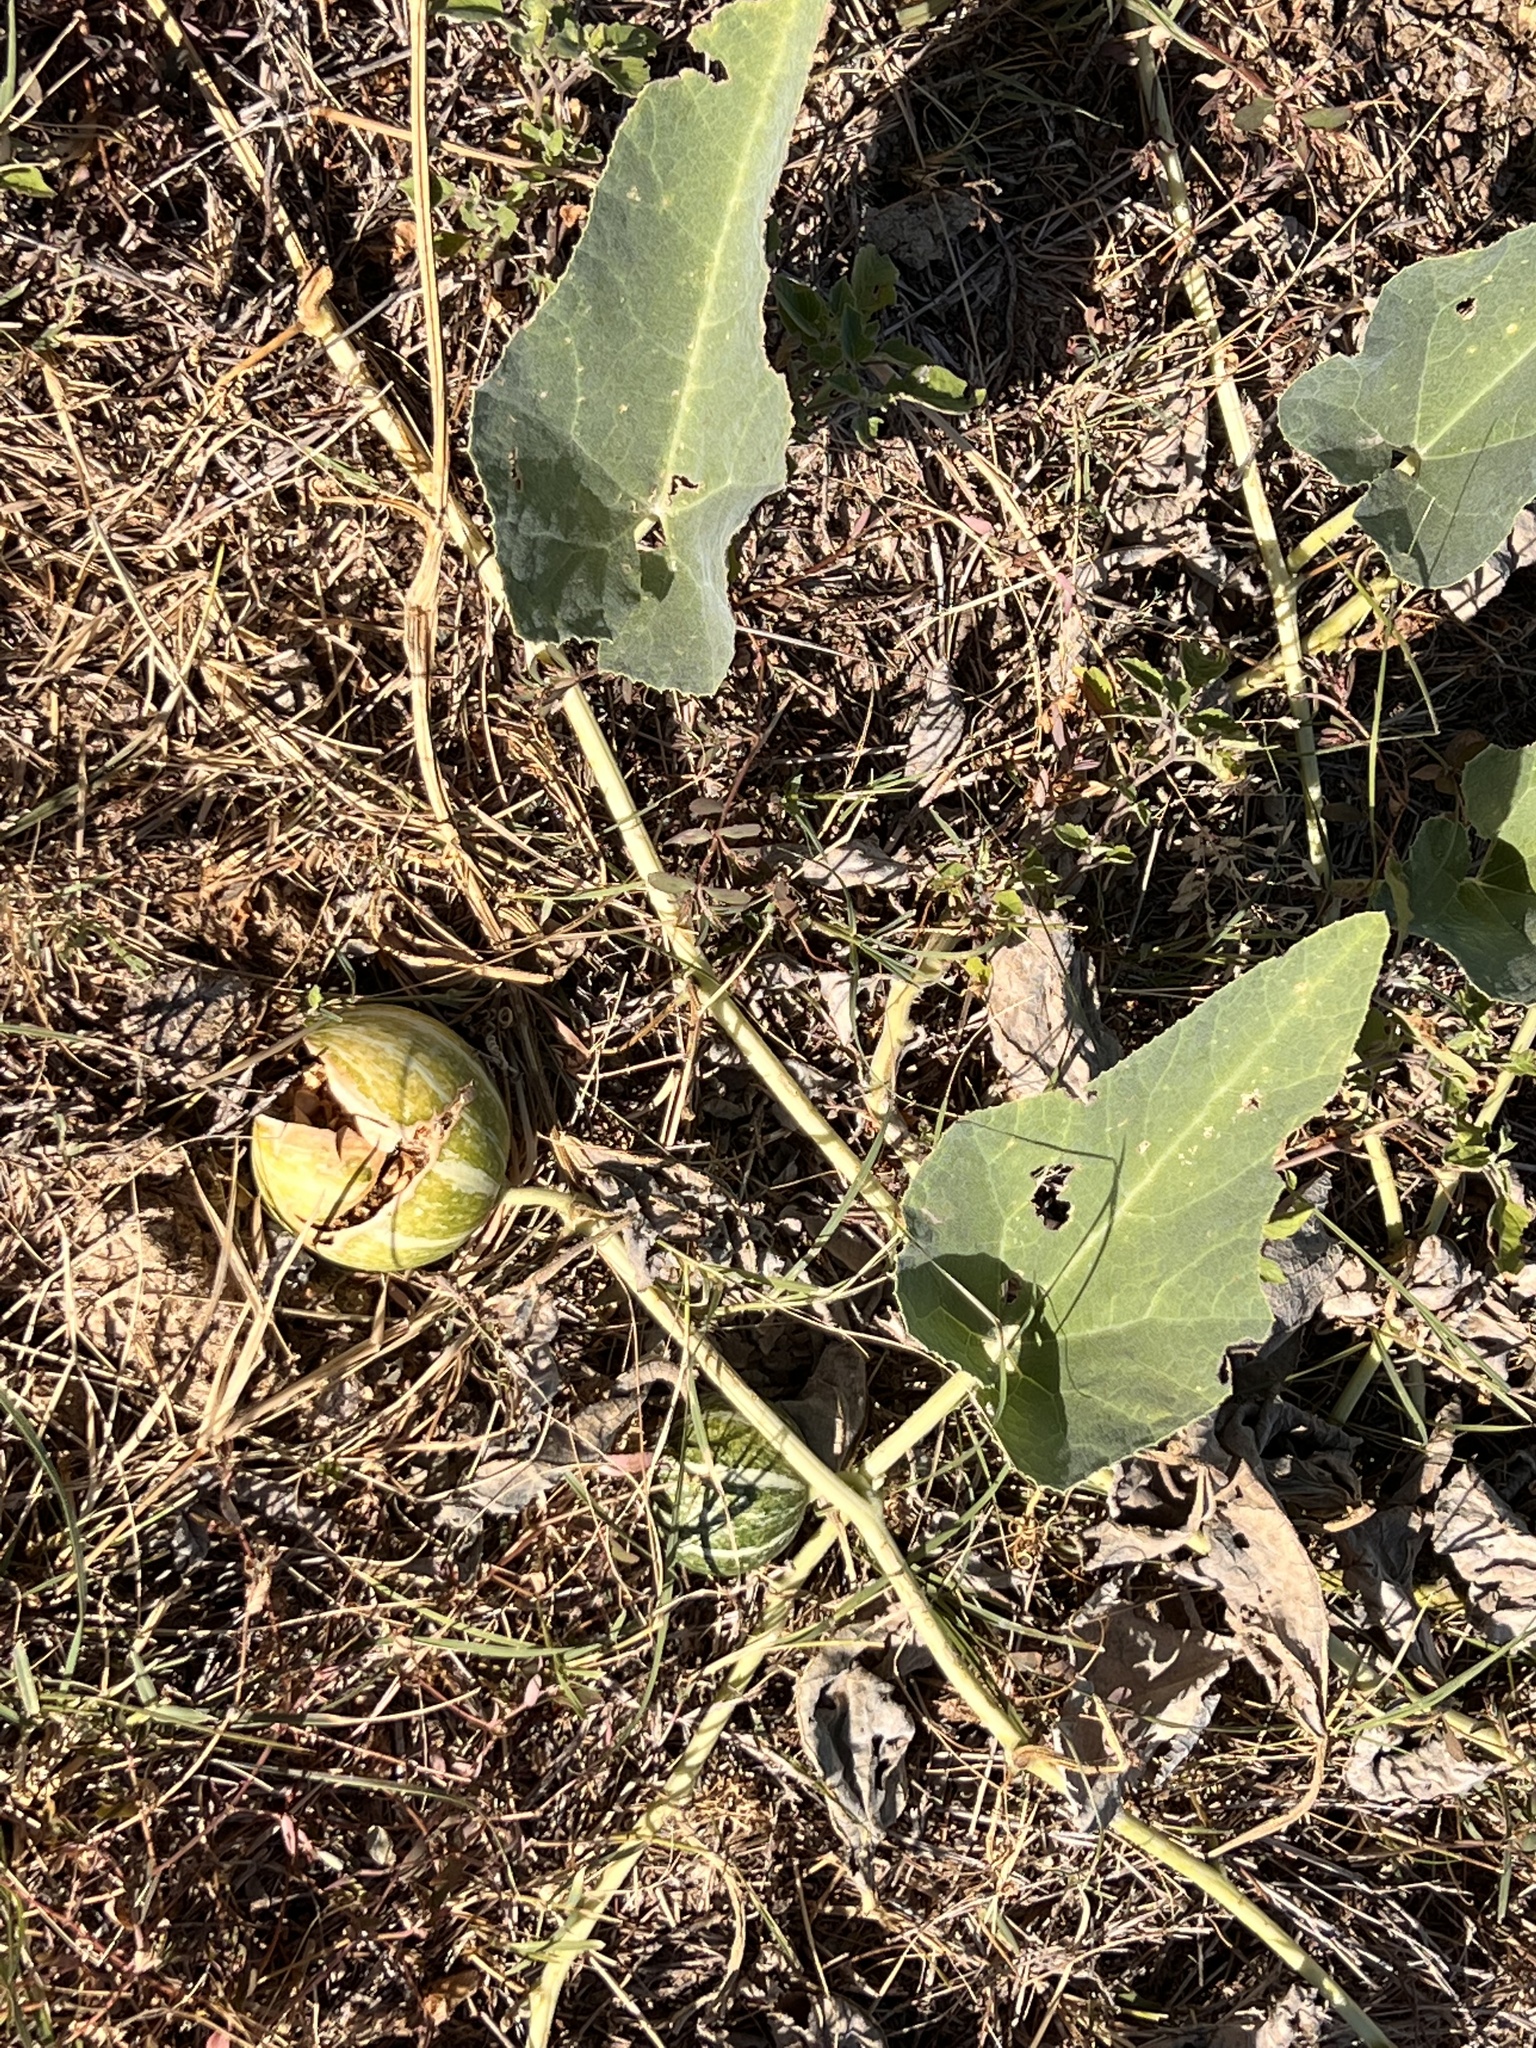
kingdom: Plantae
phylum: Tracheophyta
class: Magnoliopsida
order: Cucurbitales
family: Cucurbitaceae
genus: Cucurbita
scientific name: Cucurbita foetidissima
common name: Buffalo gourd
